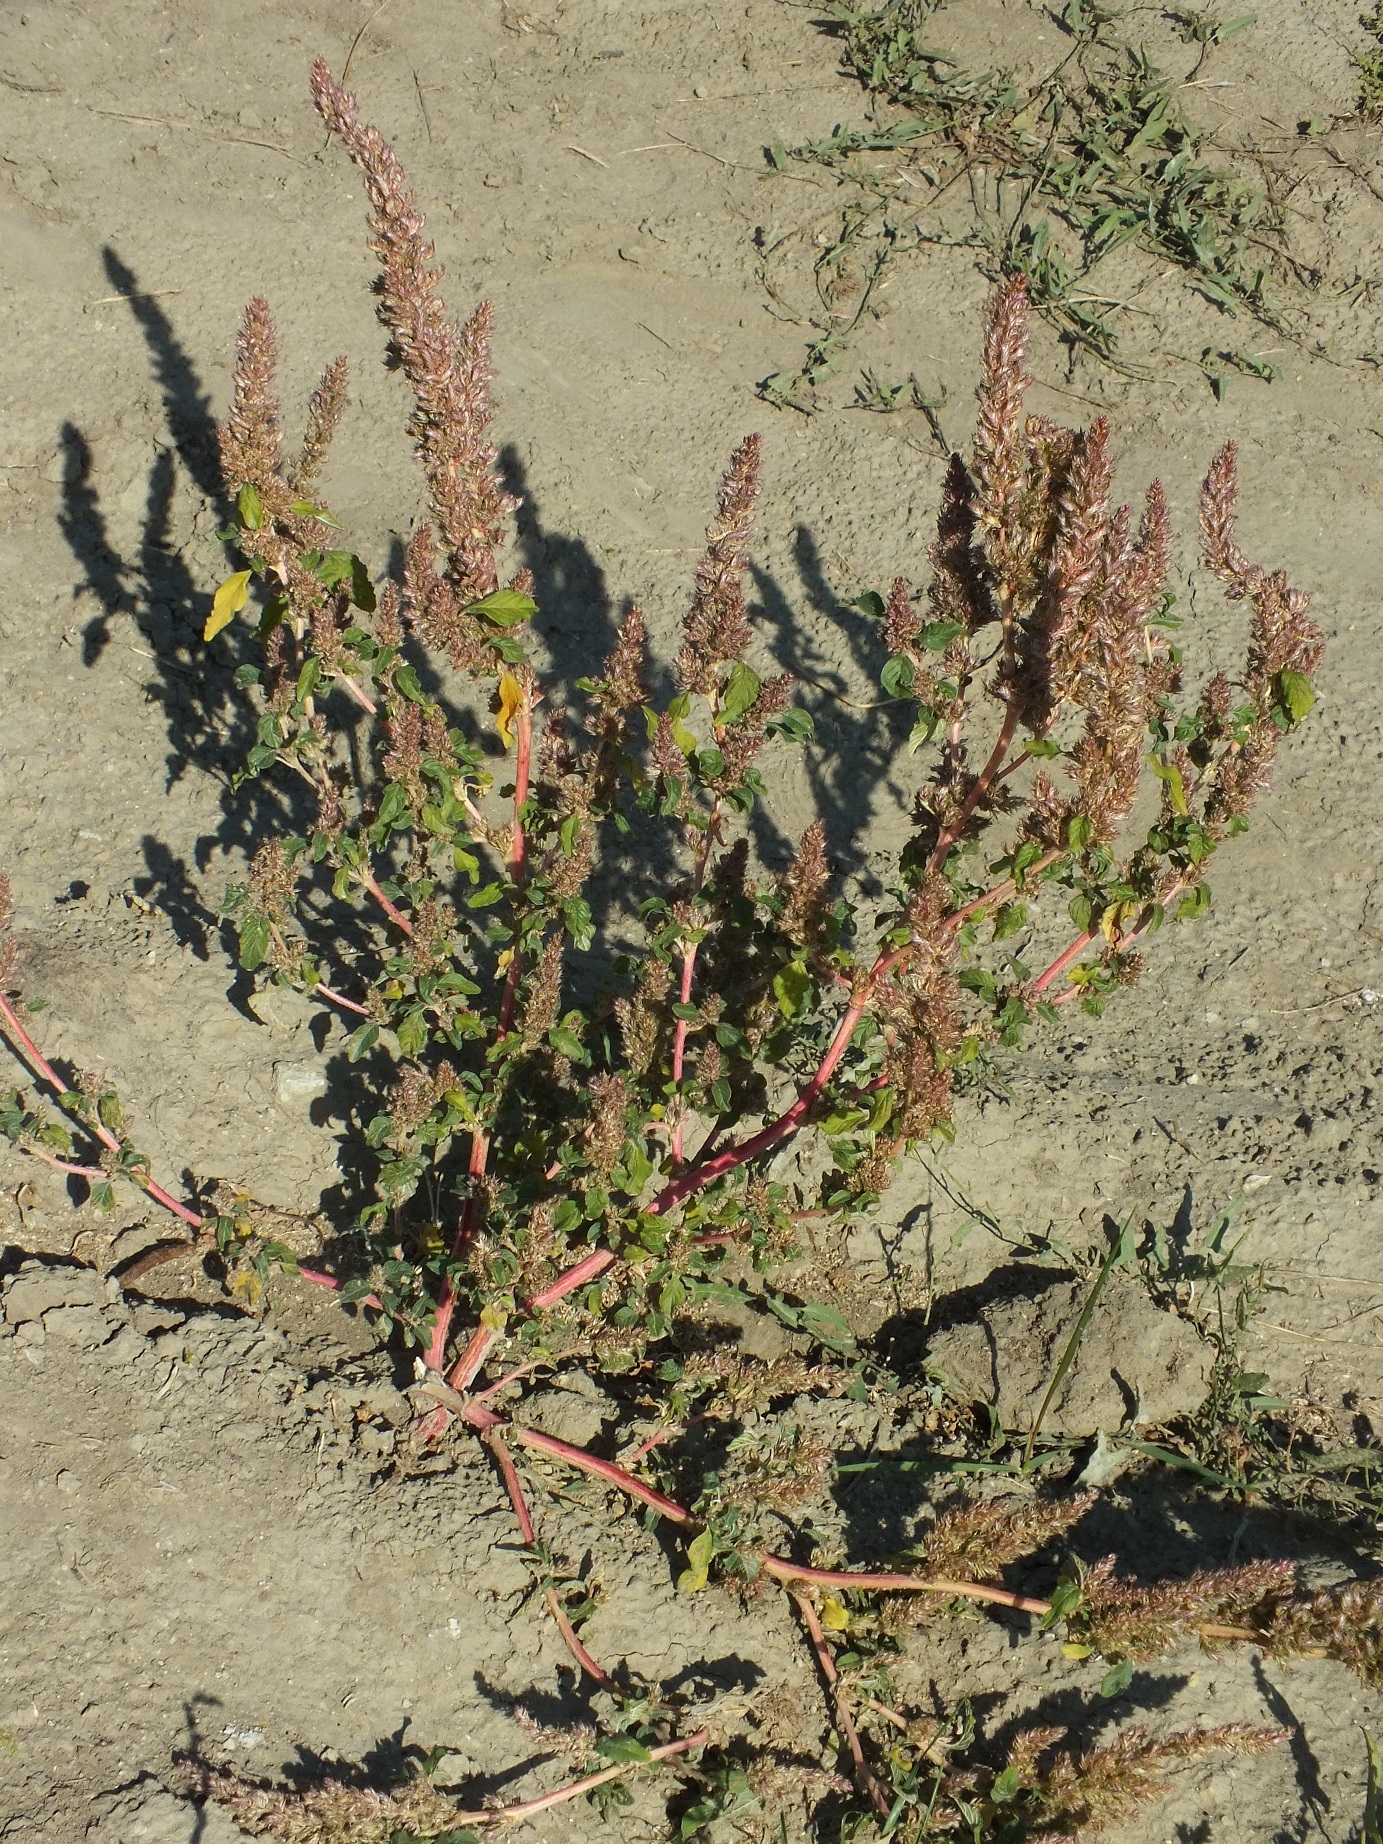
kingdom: Plantae
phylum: Tracheophyta
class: Magnoliopsida
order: Caryophyllales
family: Amaranthaceae
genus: Amaranthus
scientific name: Amaranthus retroflexus
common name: Redroot amaranth
